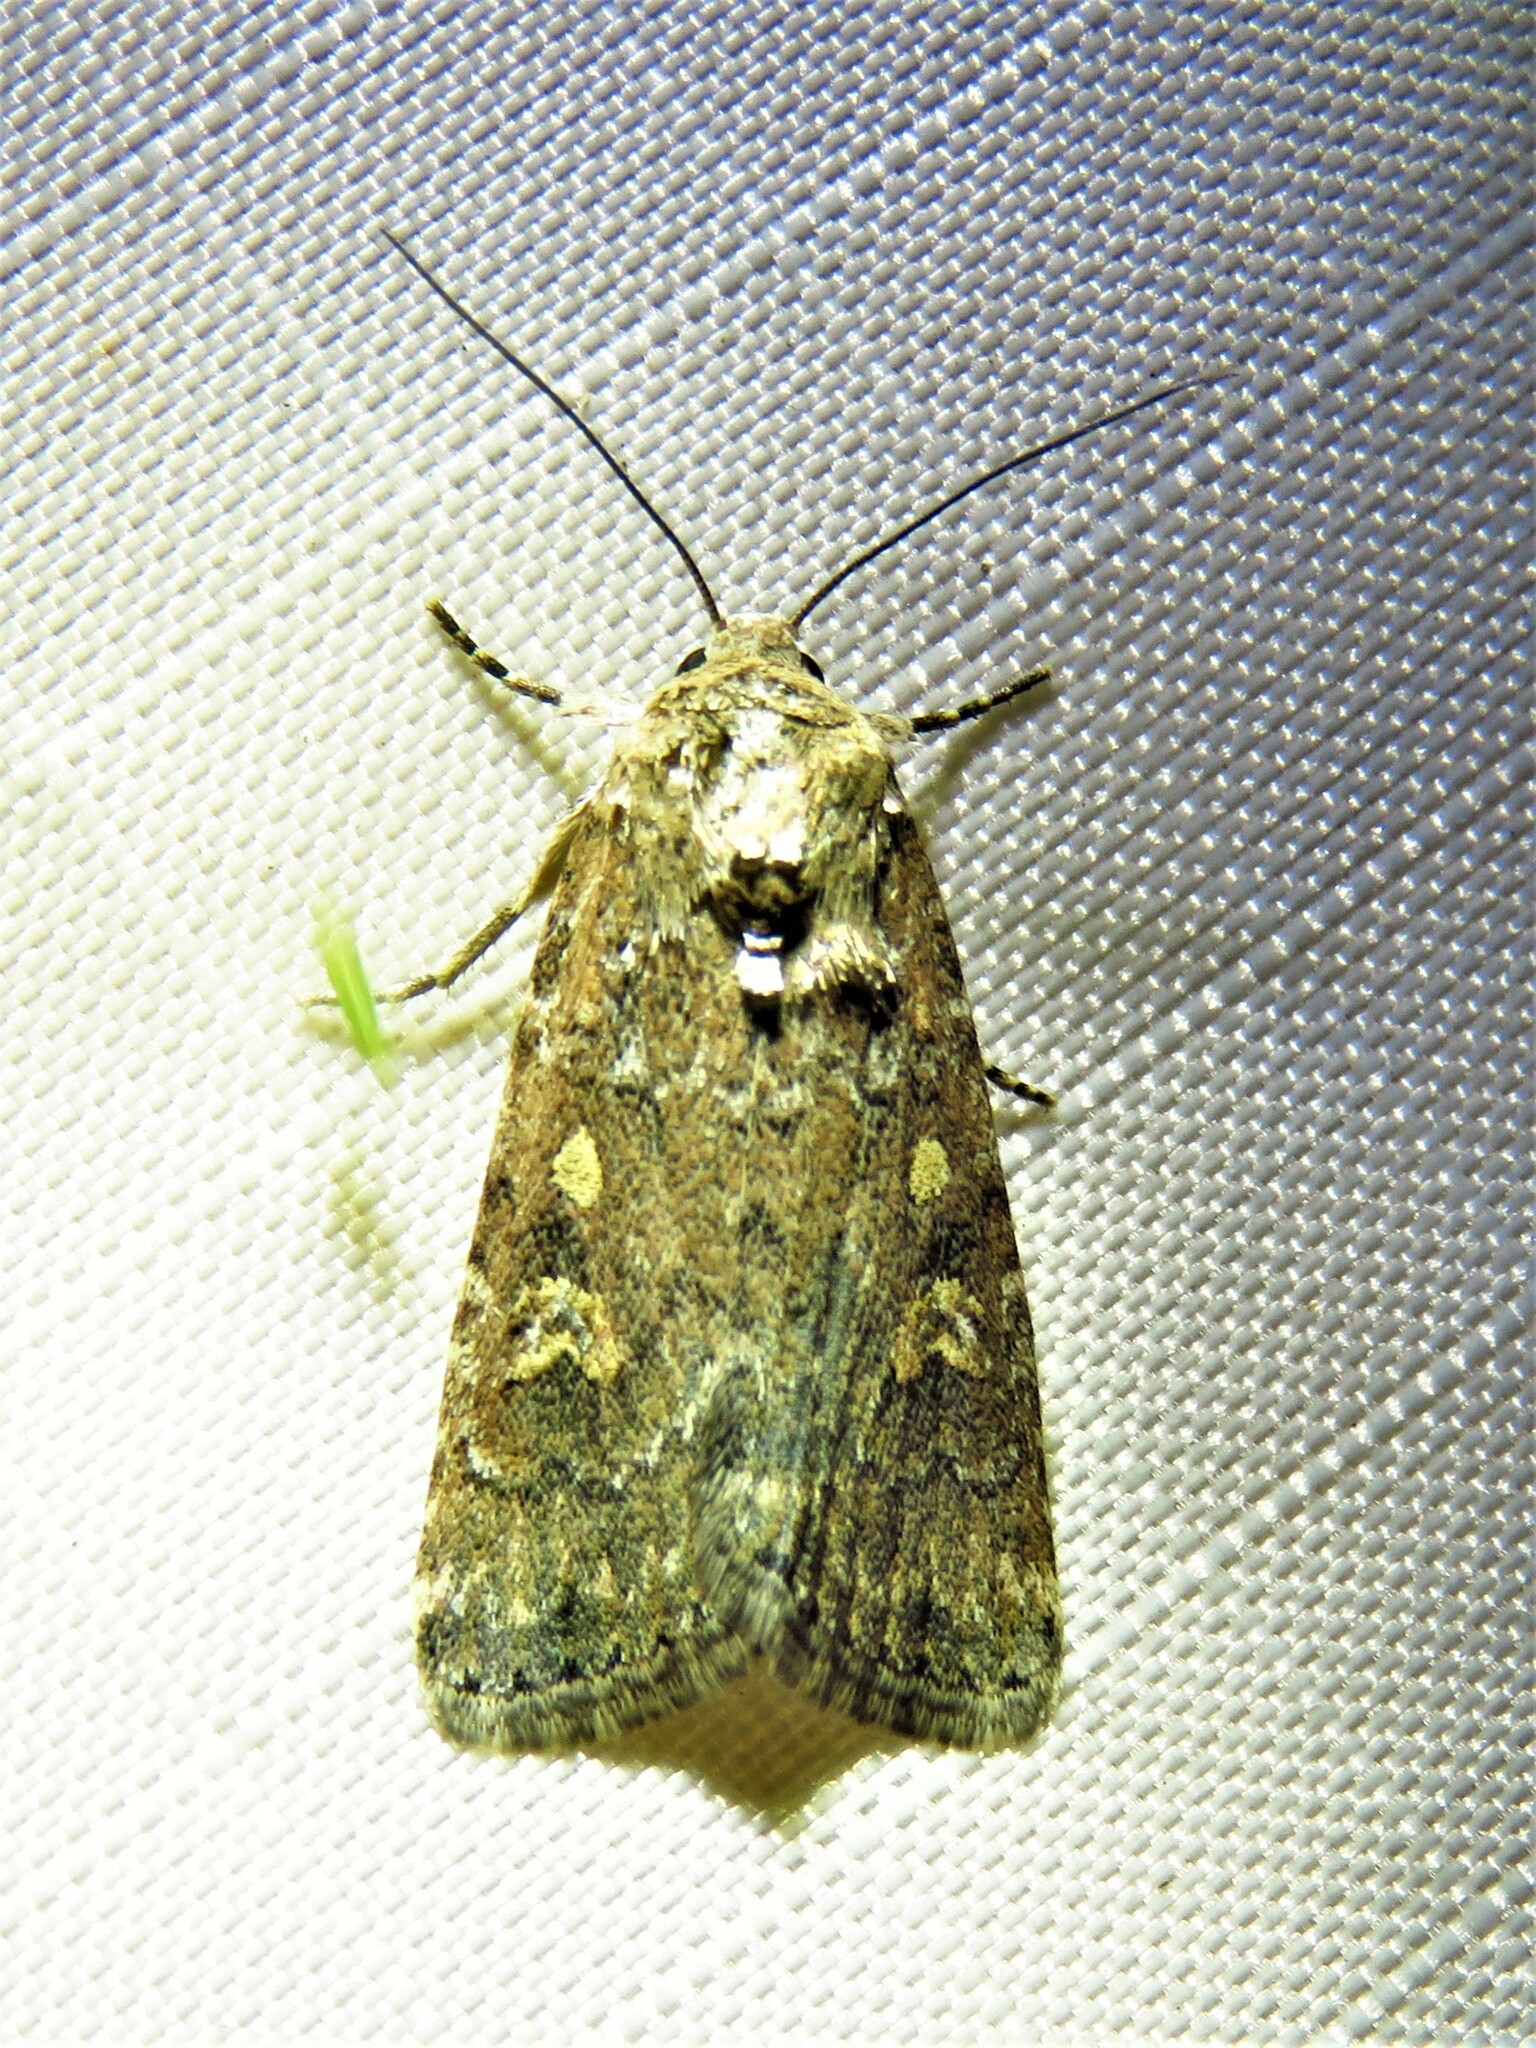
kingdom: Animalia
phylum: Arthropoda
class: Insecta
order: Lepidoptera
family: Noctuidae
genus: Spodoptera
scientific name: Spodoptera exigua
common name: Beet armyworm
